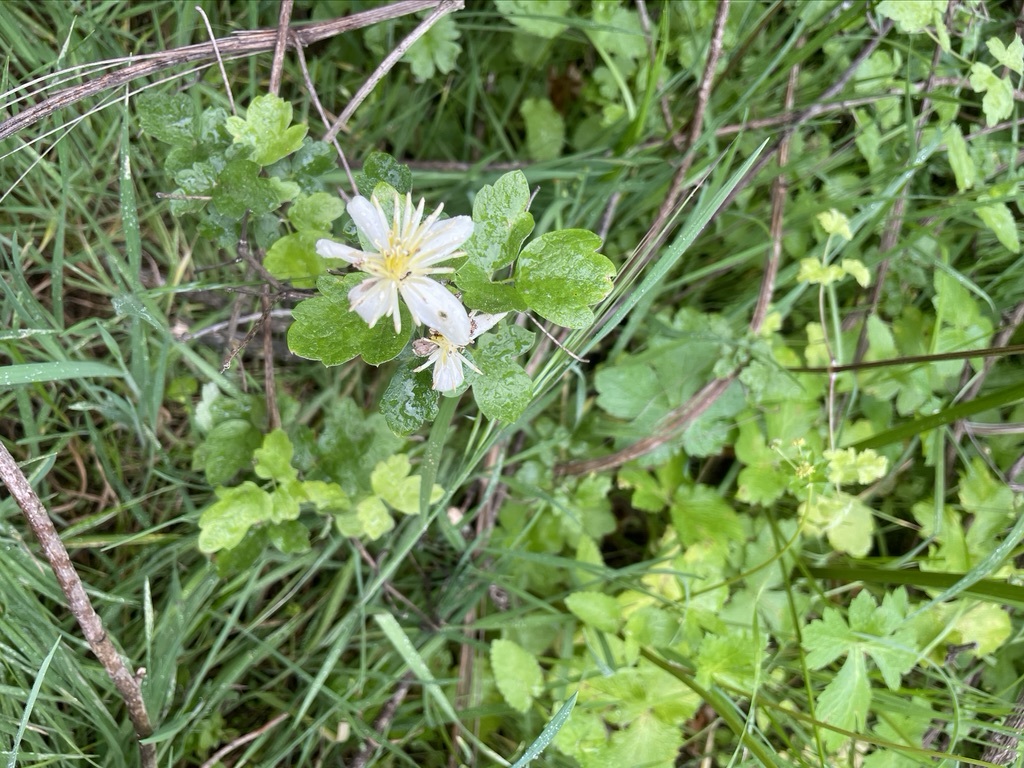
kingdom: Plantae
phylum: Tracheophyta
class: Magnoliopsida
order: Ranunculales
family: Ranunculaceae
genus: Clematis
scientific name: Clematis lasiantha
